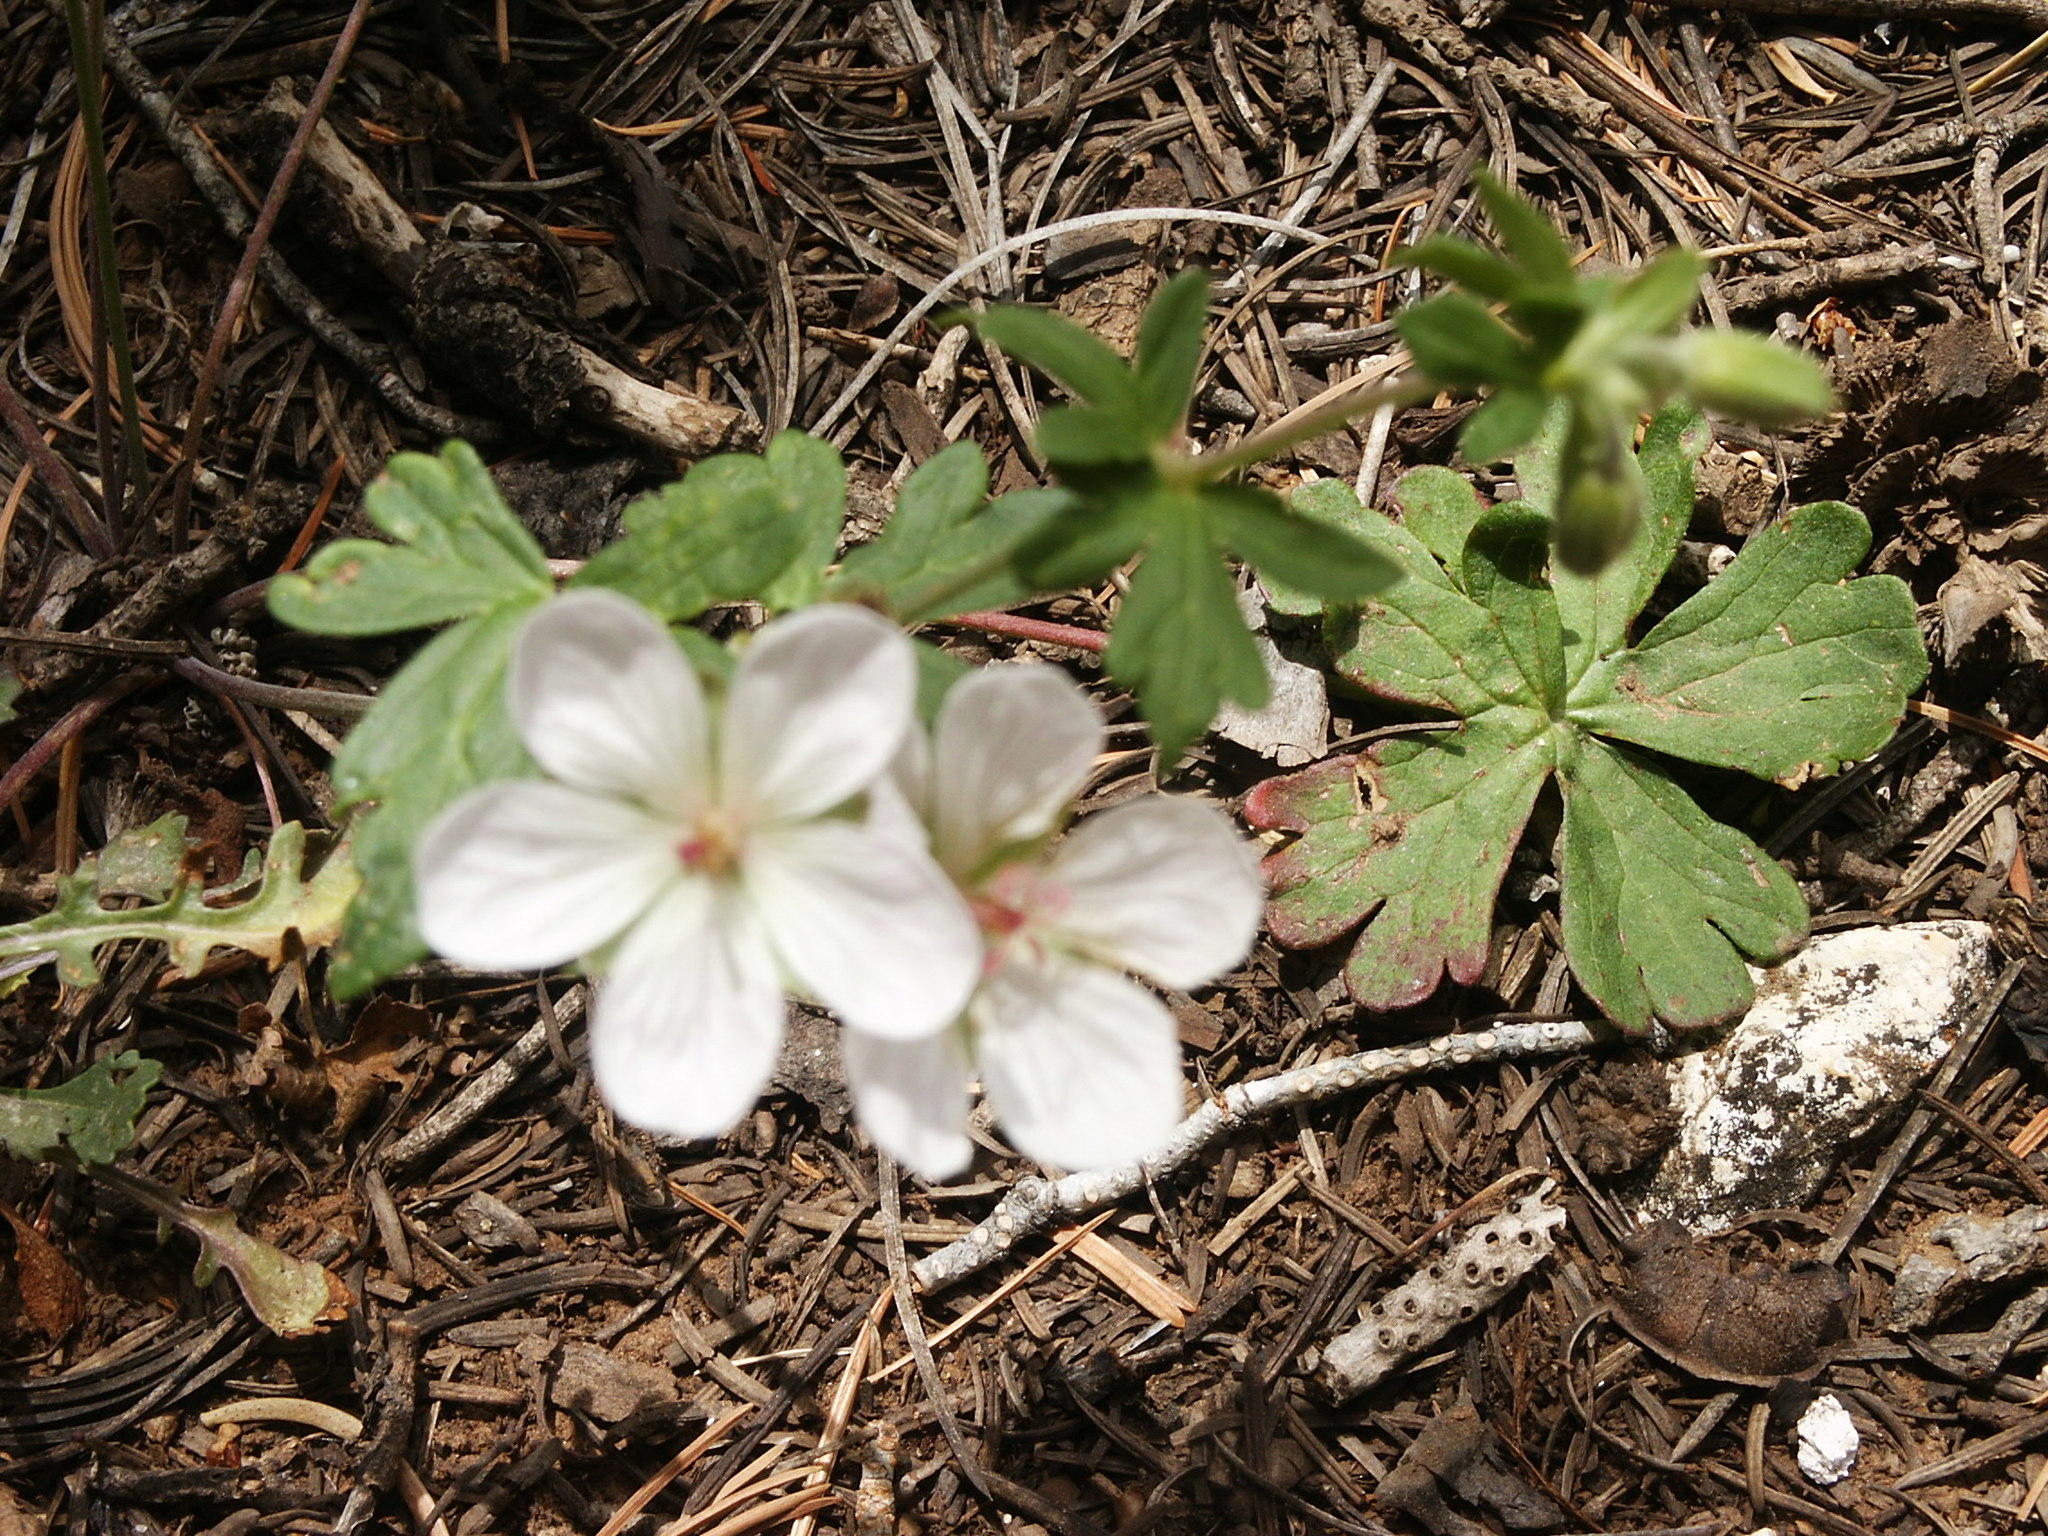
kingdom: Plantae
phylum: Tracheophyta
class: Magnoliopsida
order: Geraniales
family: Geraniaceae
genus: Geranium
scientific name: Geranium richardsonii
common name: Richardson's crane's-bill
